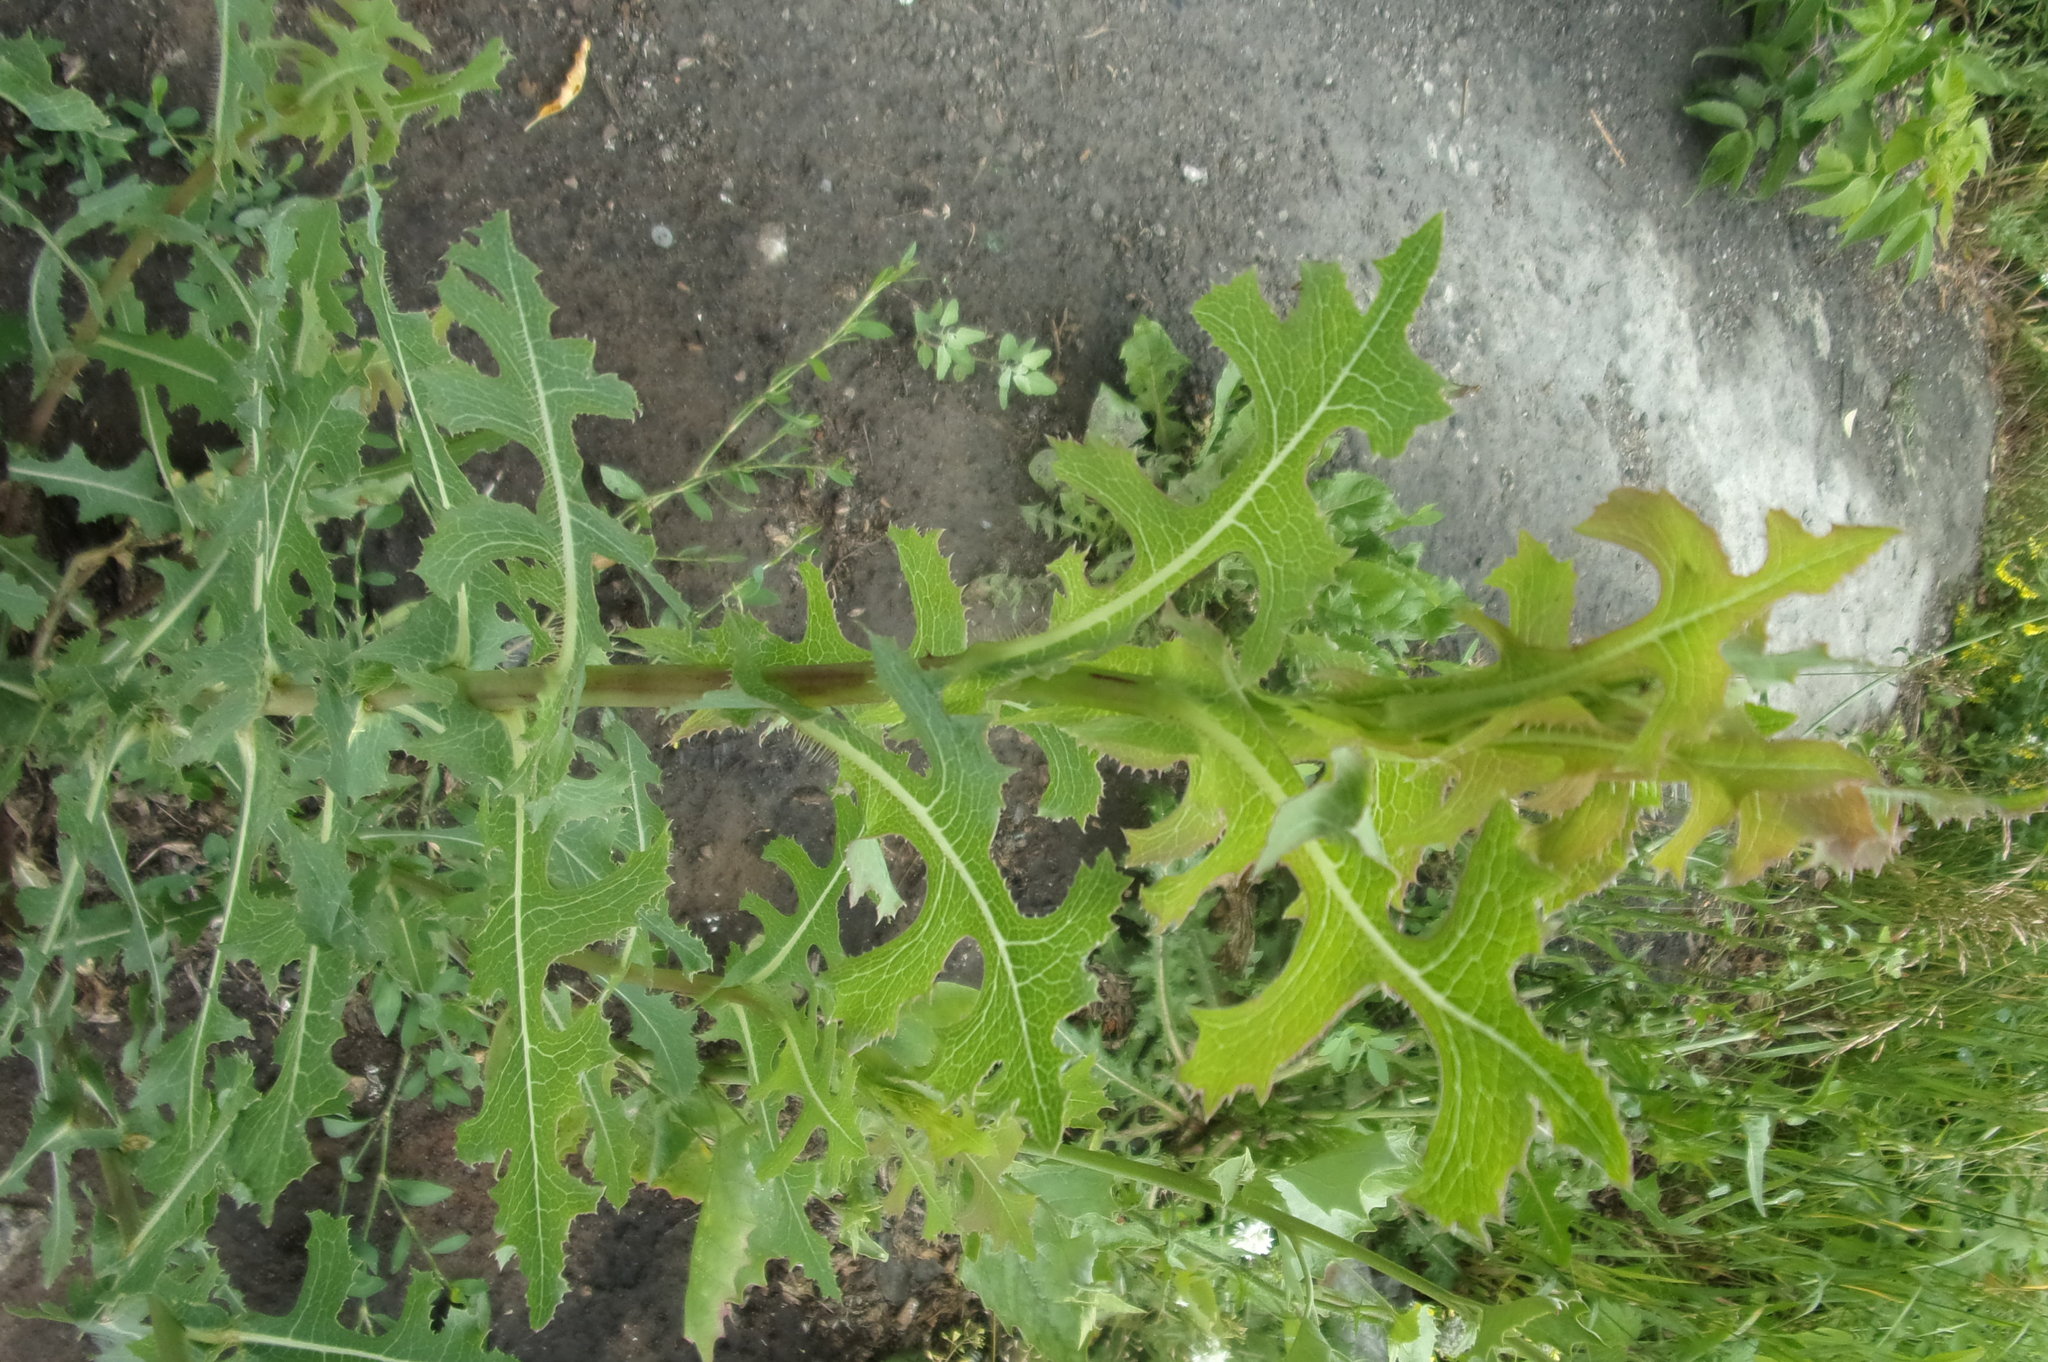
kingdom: Plantae
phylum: Tracheophyta
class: Magnoliopsida
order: Asterales
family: Asteraceae
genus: Lactuca
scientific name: Lactuca serriola
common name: Prickly lettuce
